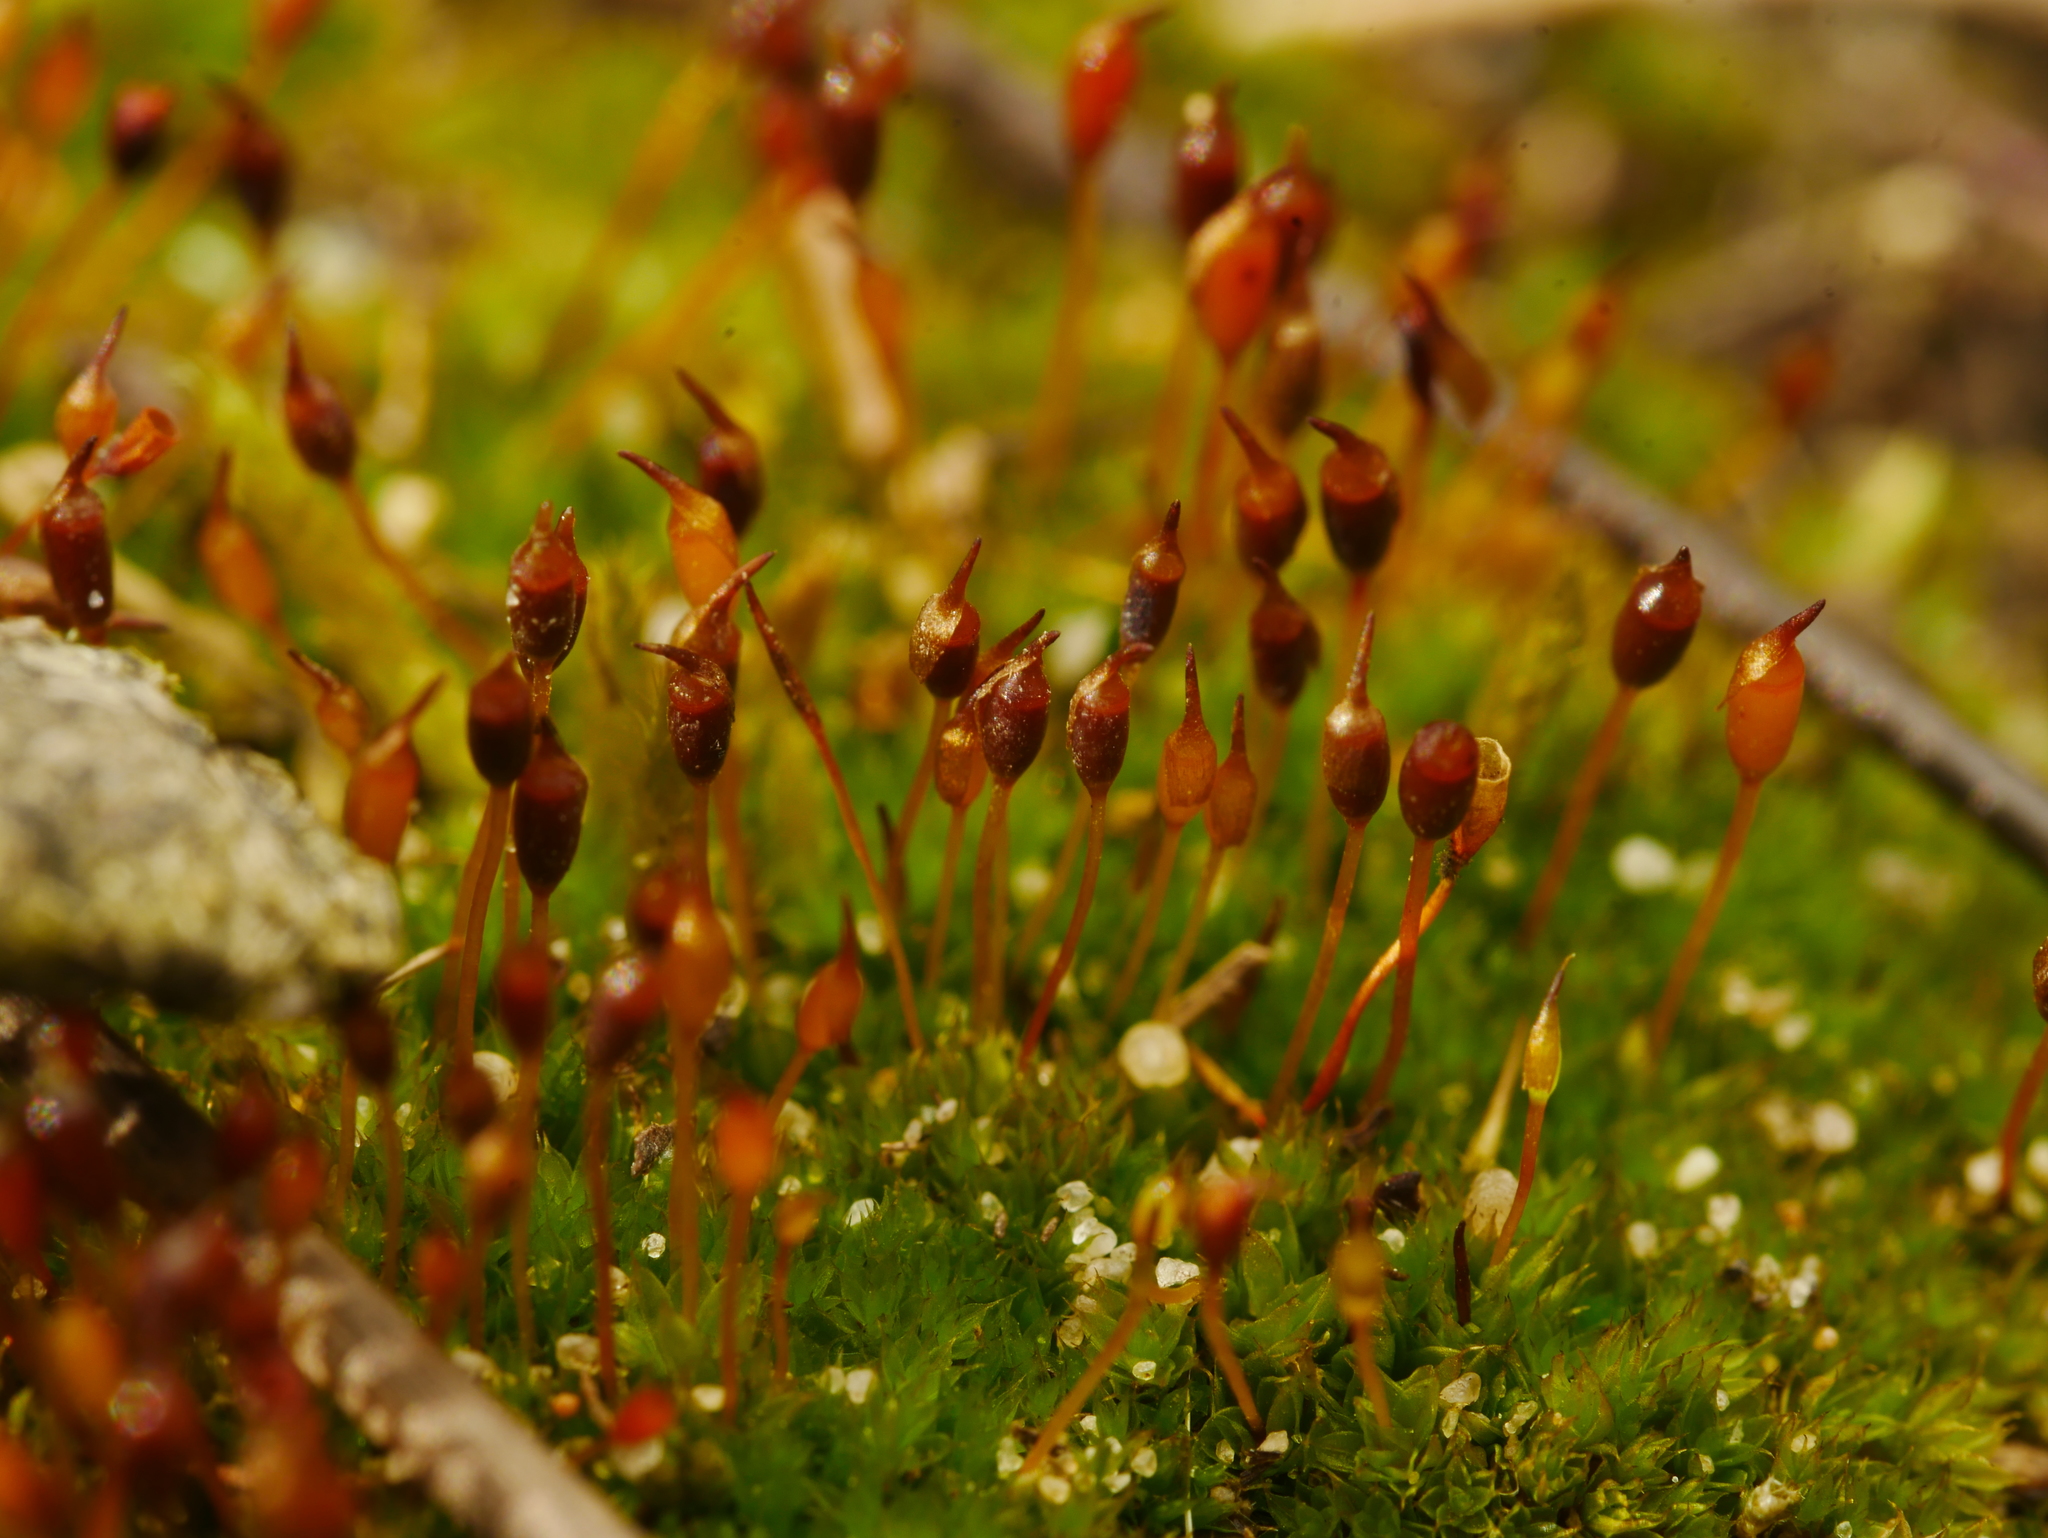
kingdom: Plantae
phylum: Bryophyta
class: Bryopsida
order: Pottiales
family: Pottiaceae
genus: Tortula
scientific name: Tortula truncata
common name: Truncated screw moss
